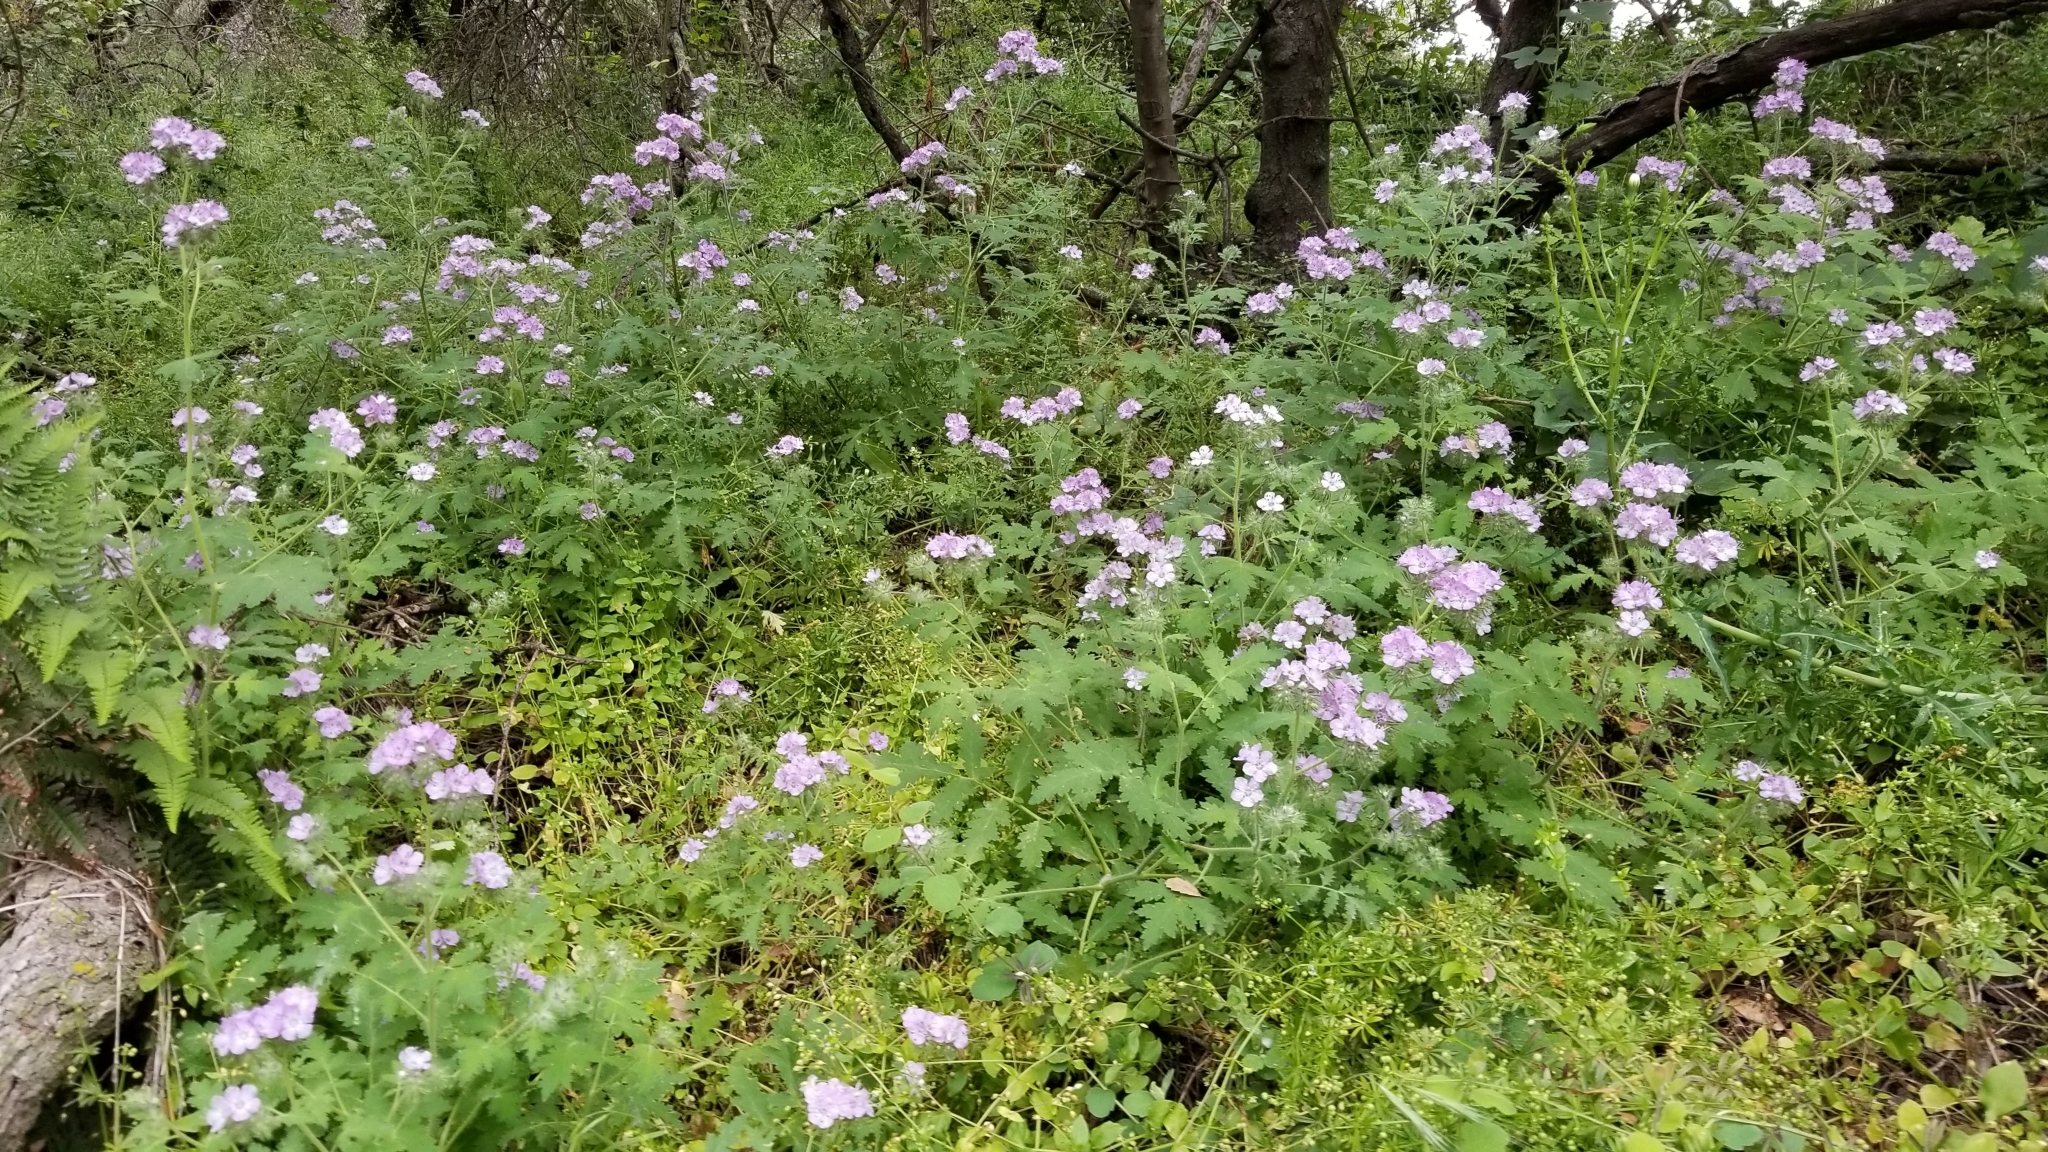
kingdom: Plantae
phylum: Tracheophyta
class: Magnoliopsida
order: Boraginales
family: Hydrophyllaceae
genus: Phacelia
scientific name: Phacelia cicutaria
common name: Caterpillar phacelia
